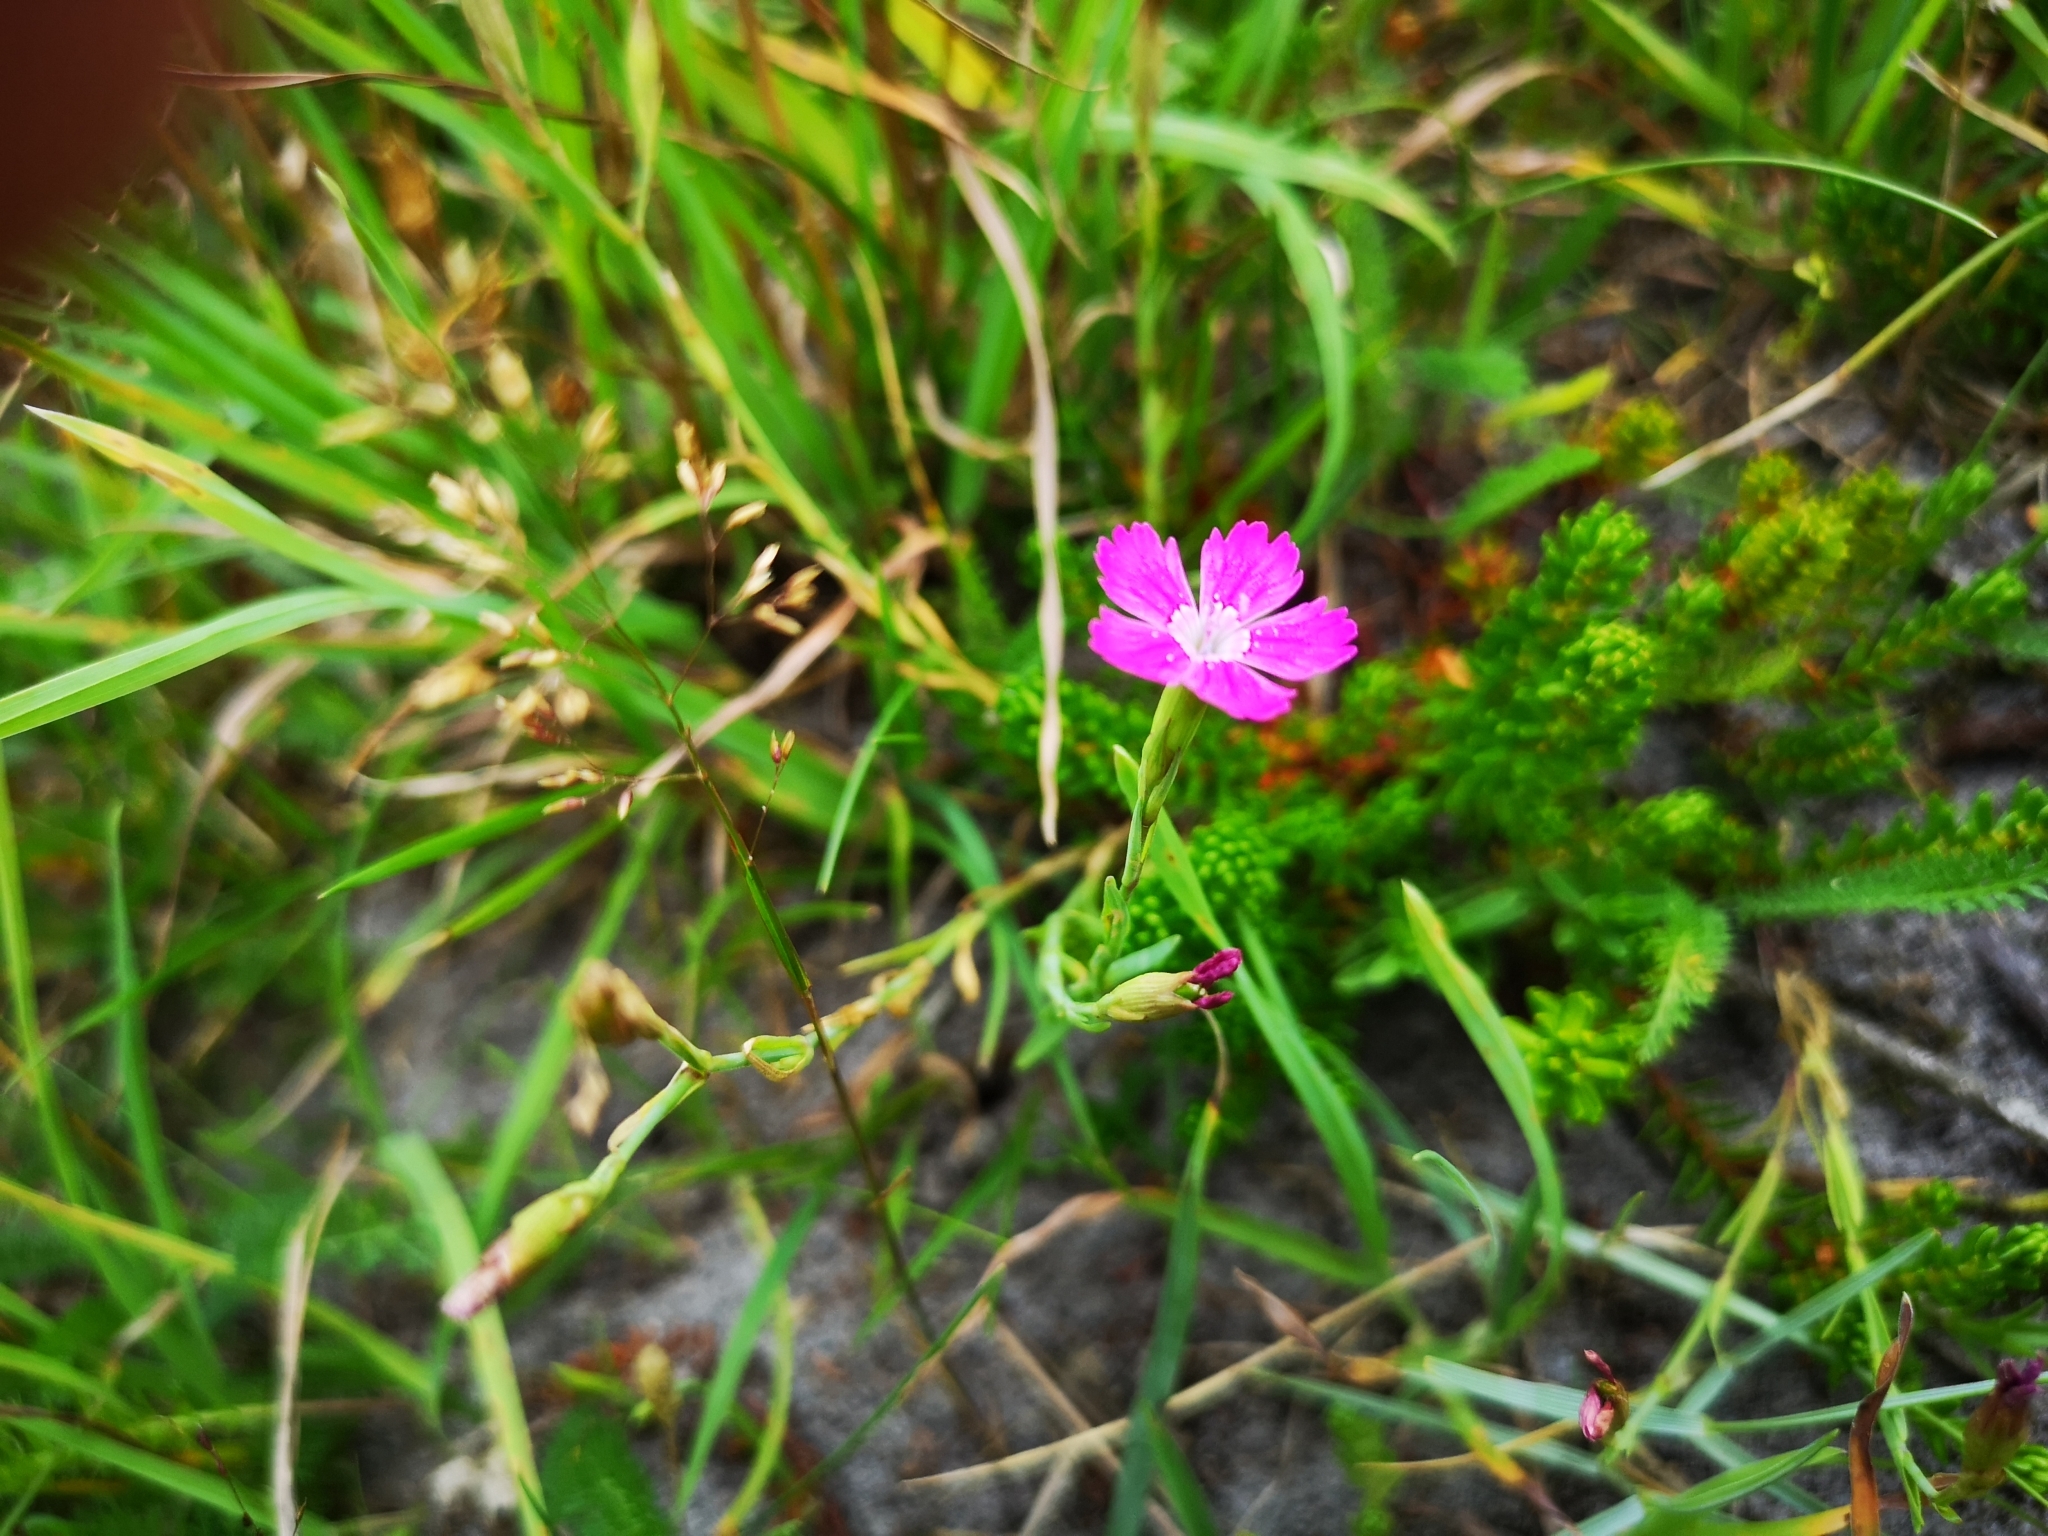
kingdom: Plantae
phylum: Tracheophyta
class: Magnoliopsida
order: Caryophyllales
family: Caryophyllaceae
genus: Dianthus
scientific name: Dianthus deltoides
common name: Maiden pink
